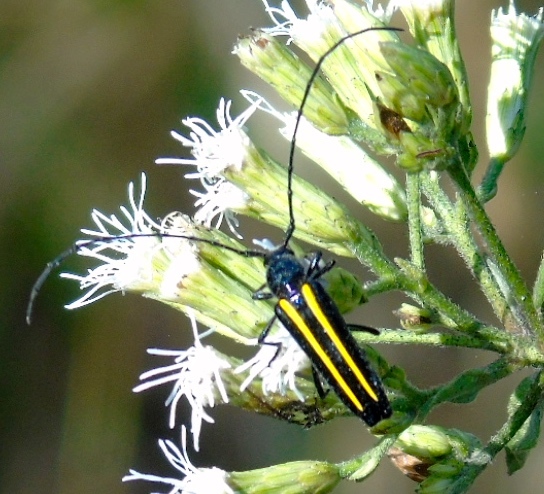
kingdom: Animalia
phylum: Arthropoda
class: Insecta
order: Coleoptera
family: Cerambycidae
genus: Lophalia
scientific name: Lophalia prolata
